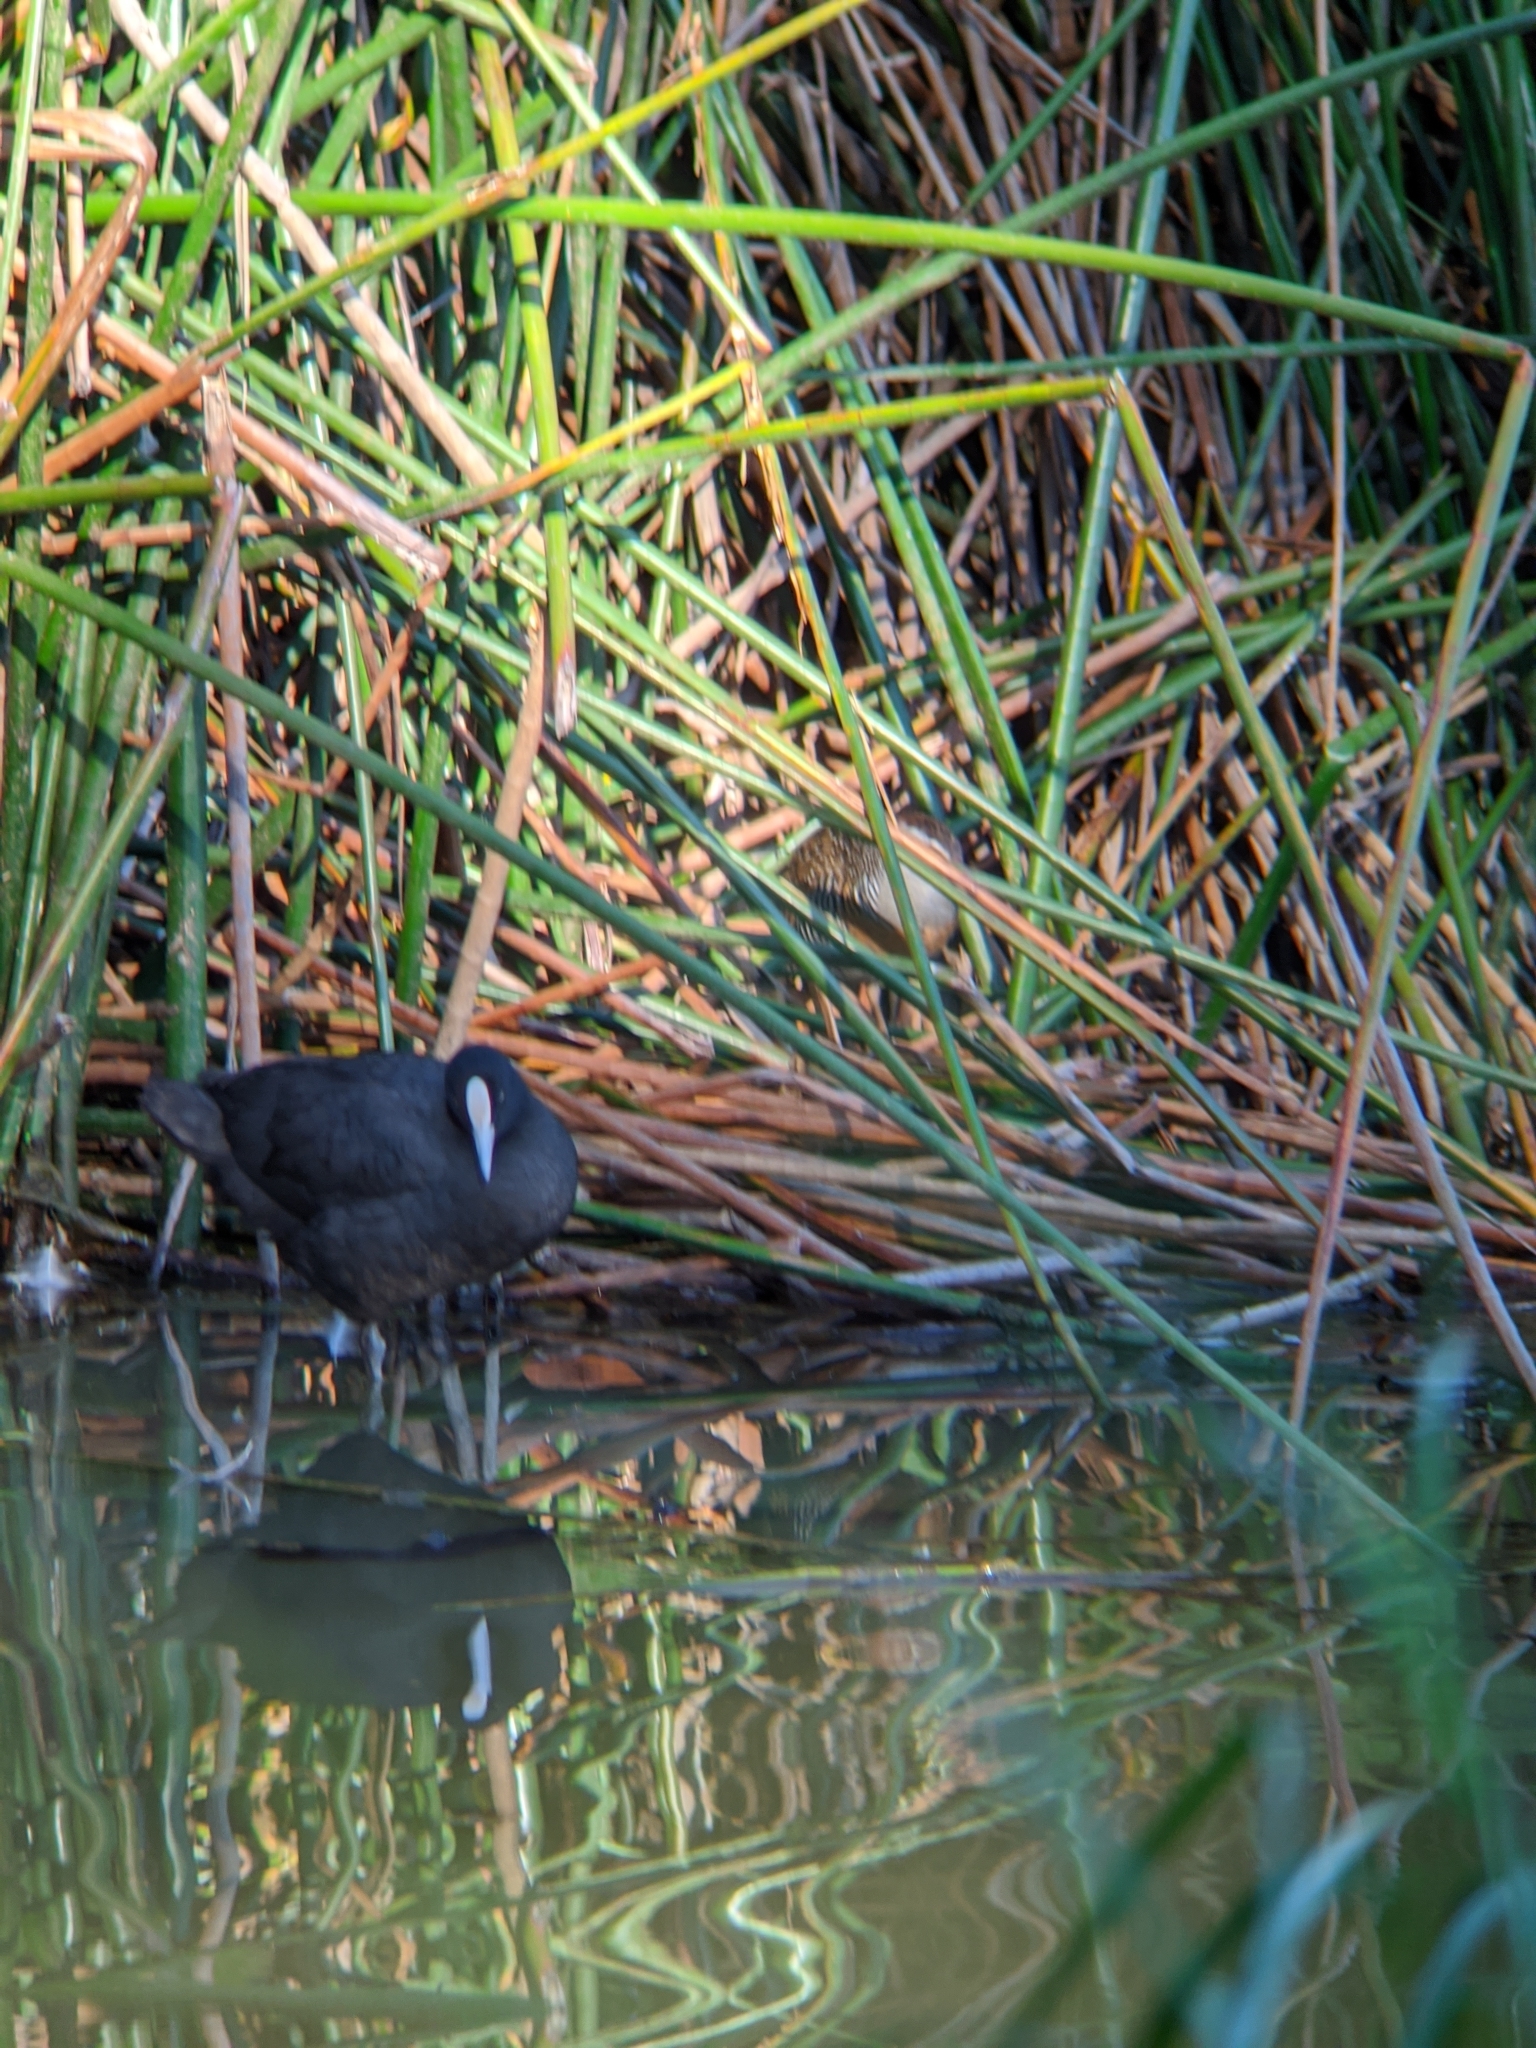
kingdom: Animalia
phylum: Chordata
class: Aves
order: Gruiformes
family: Rallidae
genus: Fulica
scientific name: Fulica atra
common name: Eurasian coot
